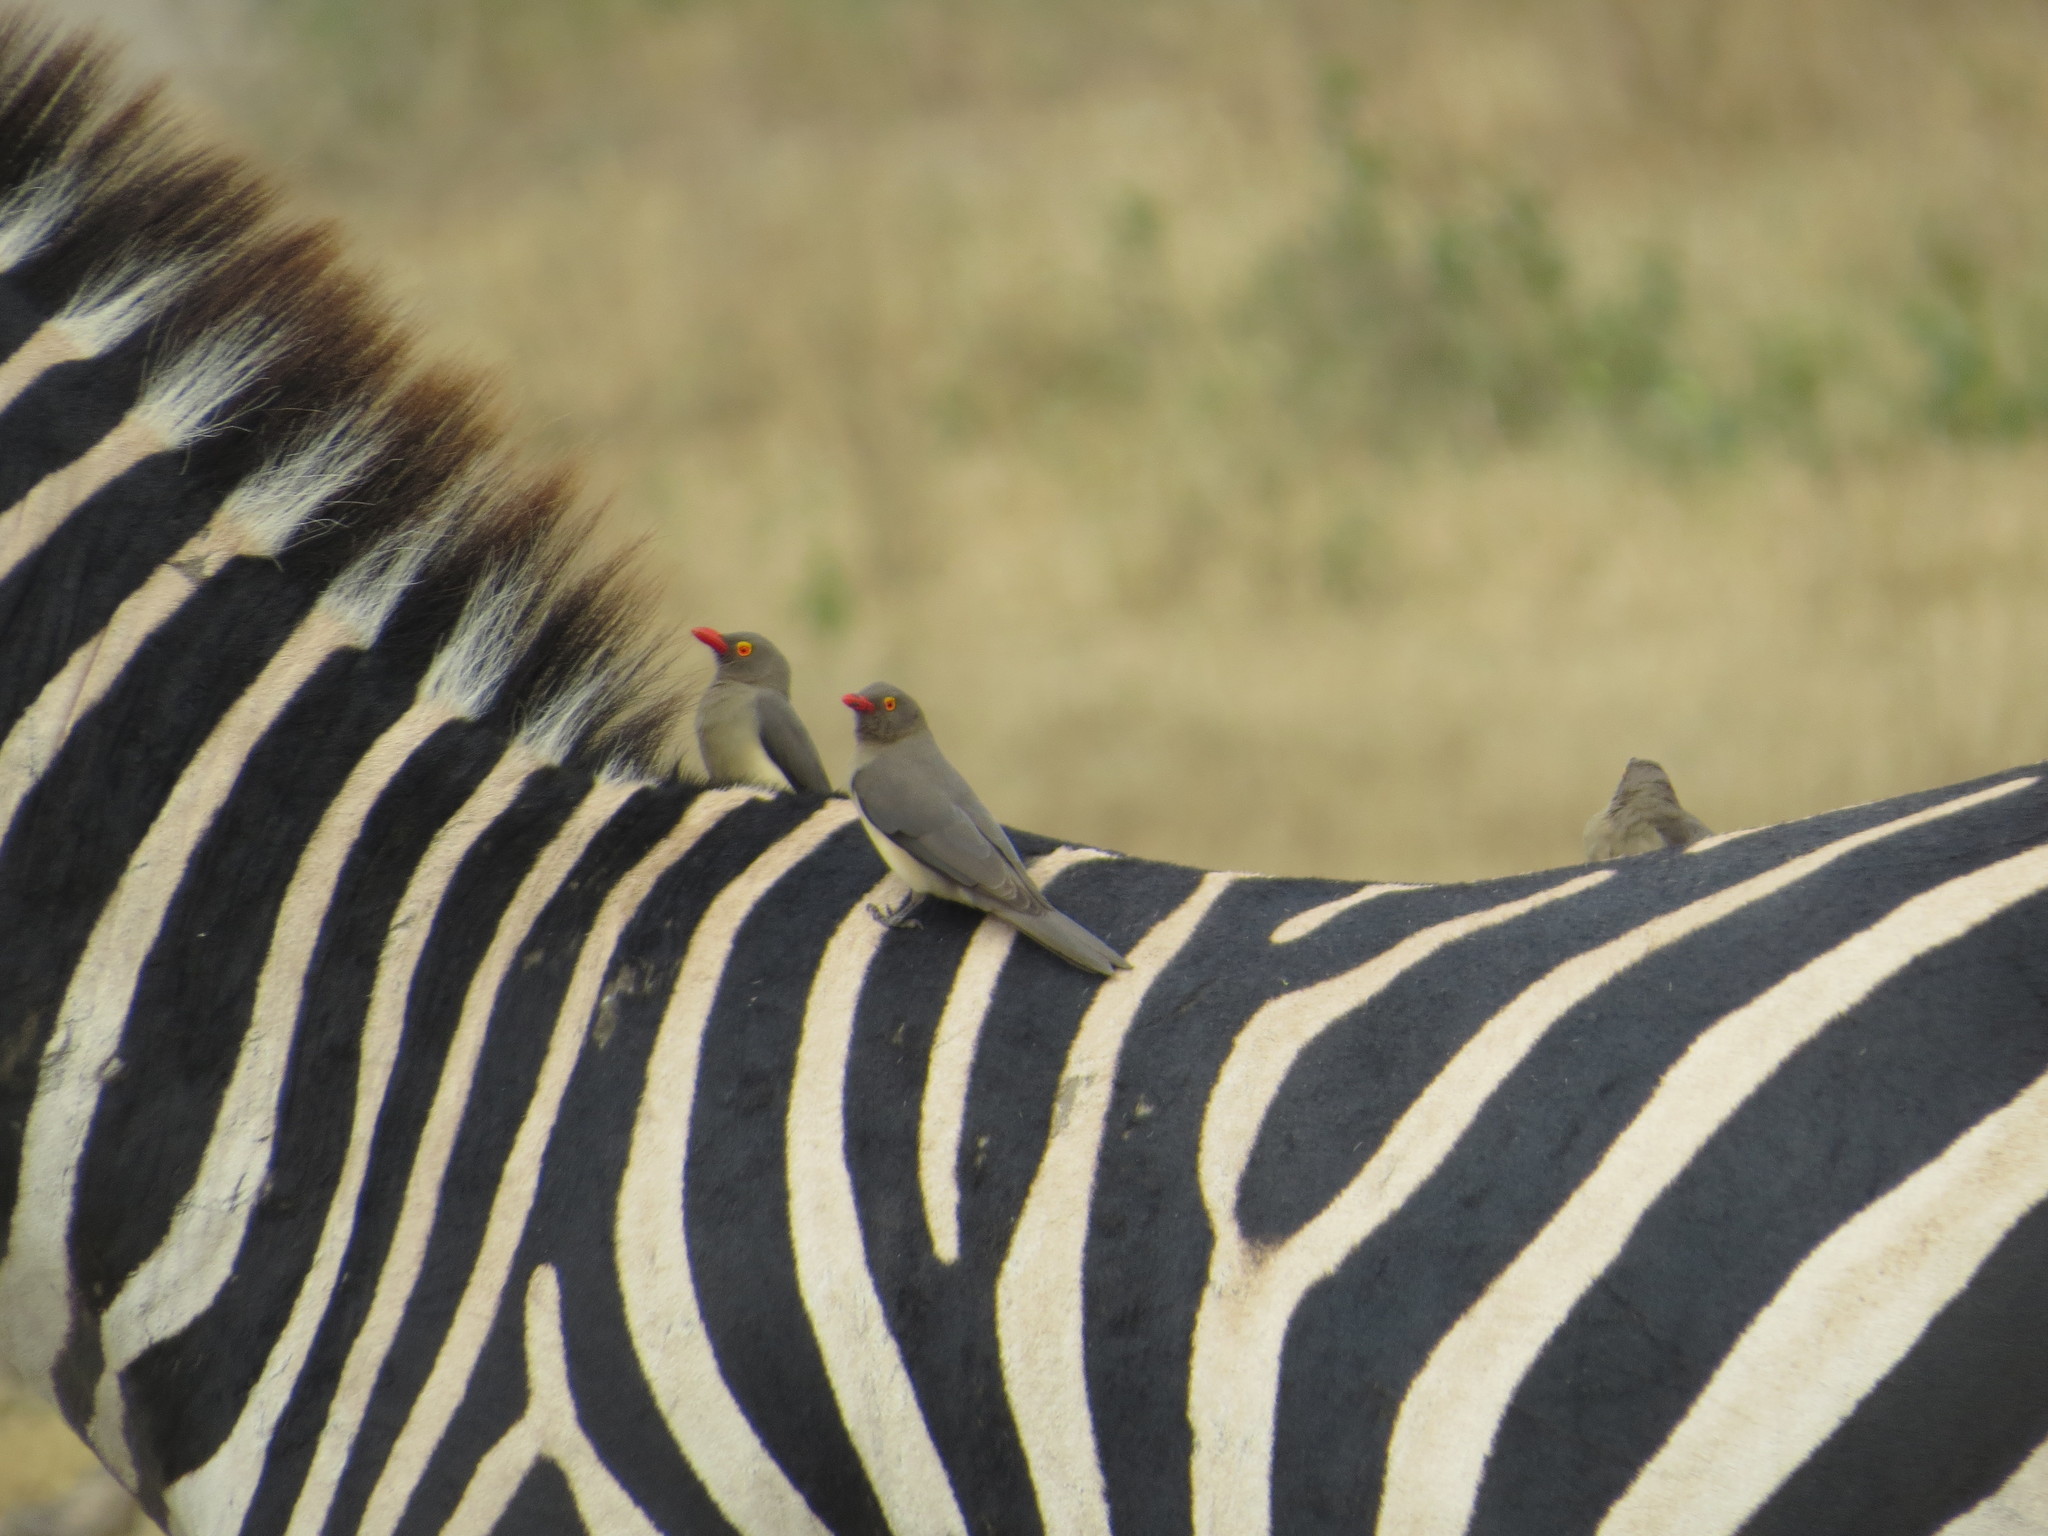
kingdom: Animalia
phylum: Chordata
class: Aves
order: Passeriformes
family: Buphagidae
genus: Buphagus
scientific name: Buphagus erythrorhynchus
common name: Red-billed oxpecker
